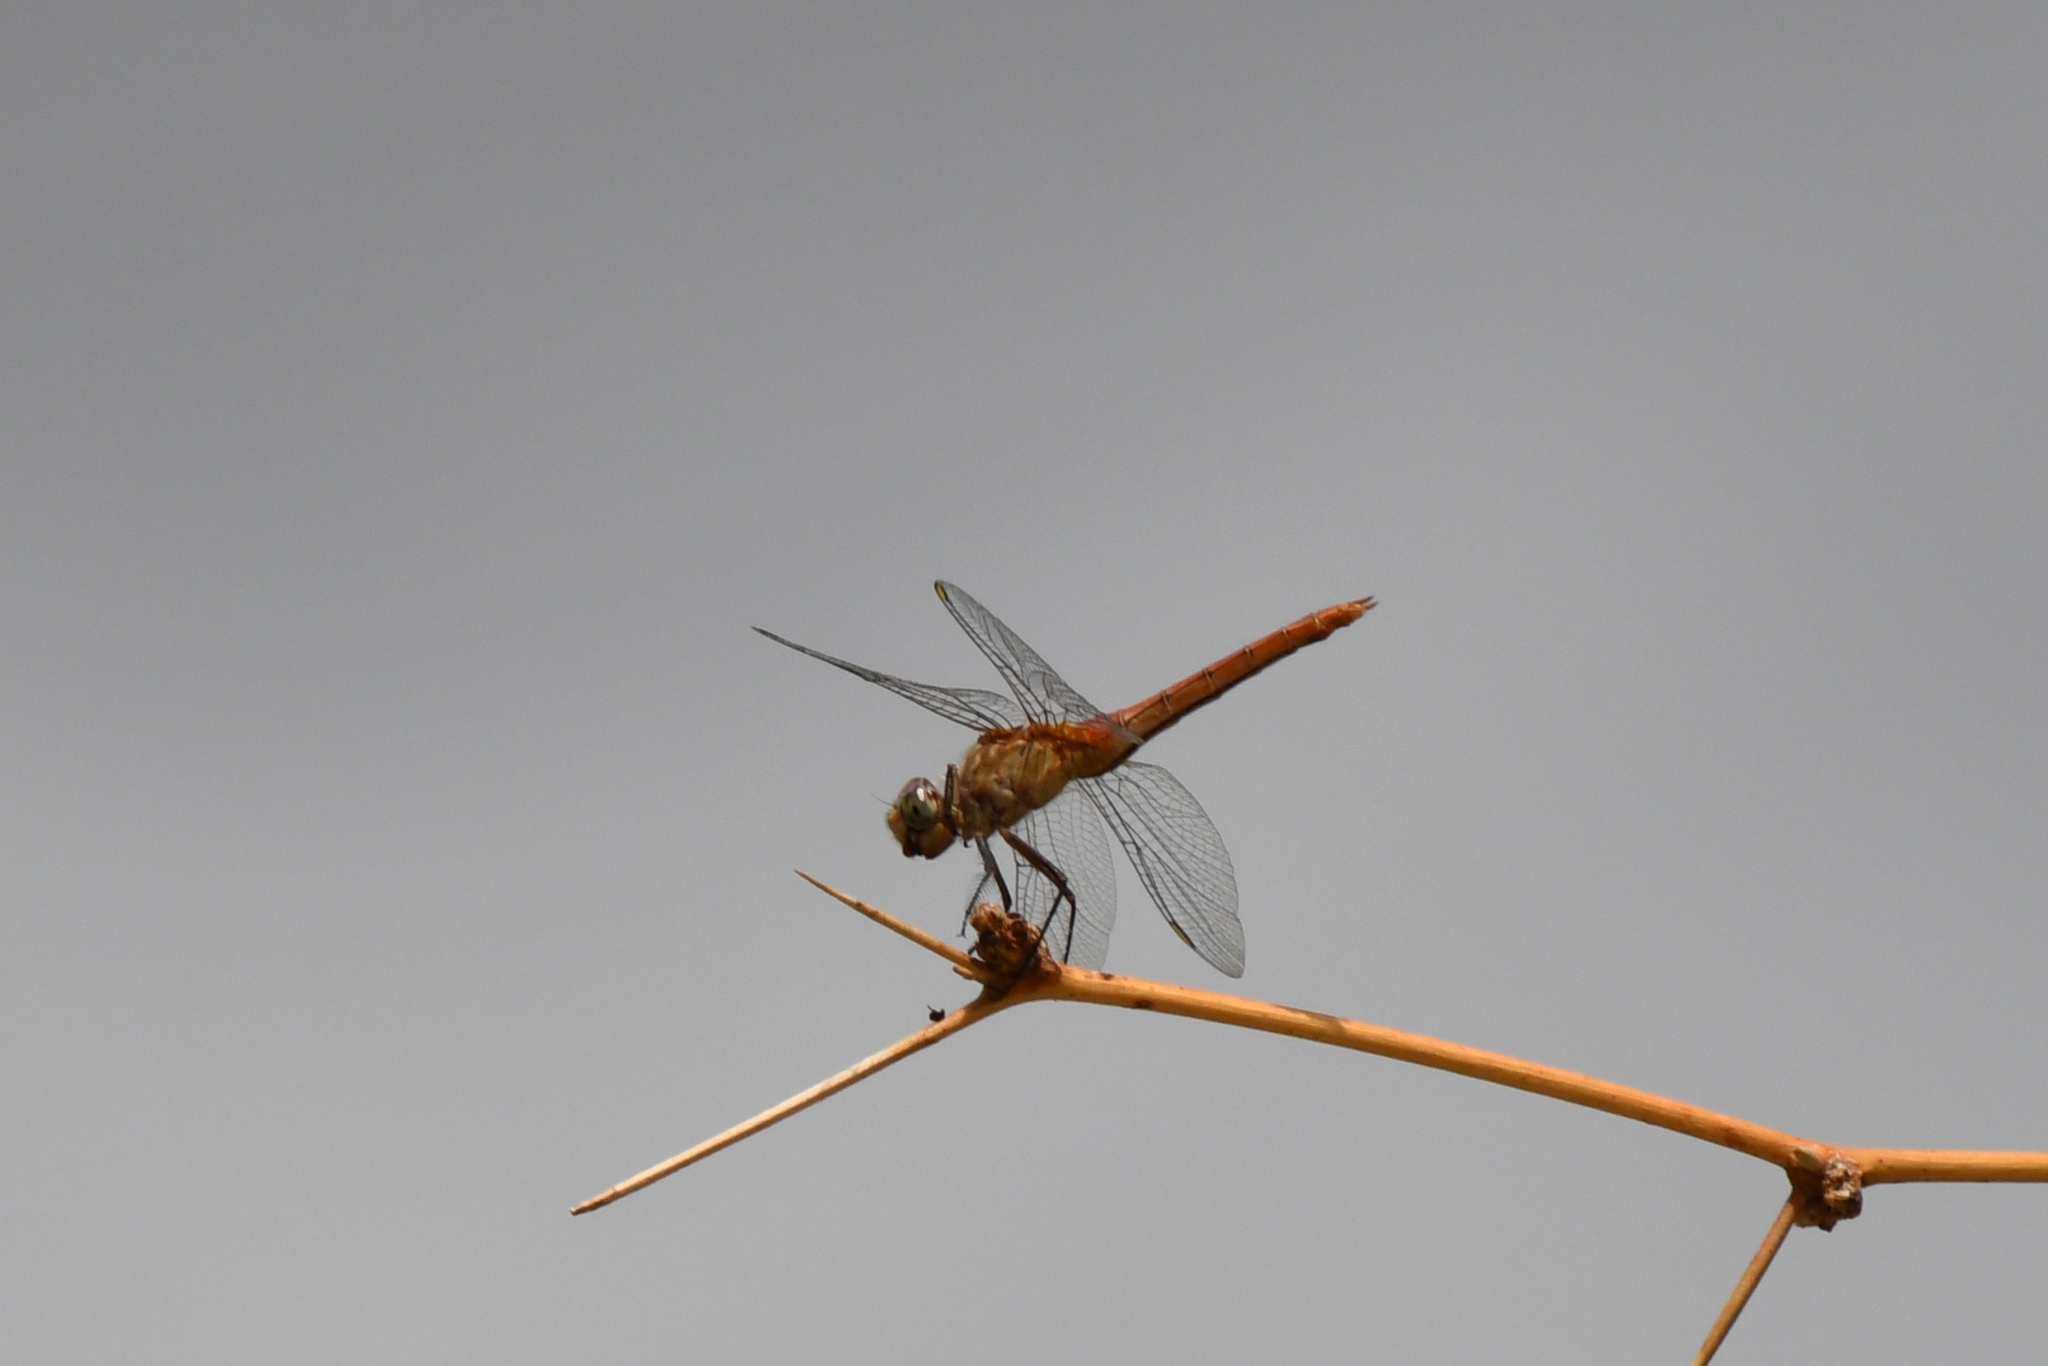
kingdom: Animalia
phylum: Arthropoda
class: Insecta
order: Odonata
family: Libellulidae
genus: Brachymesia
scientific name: Brachymesia furcata
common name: Red-taled pennant
